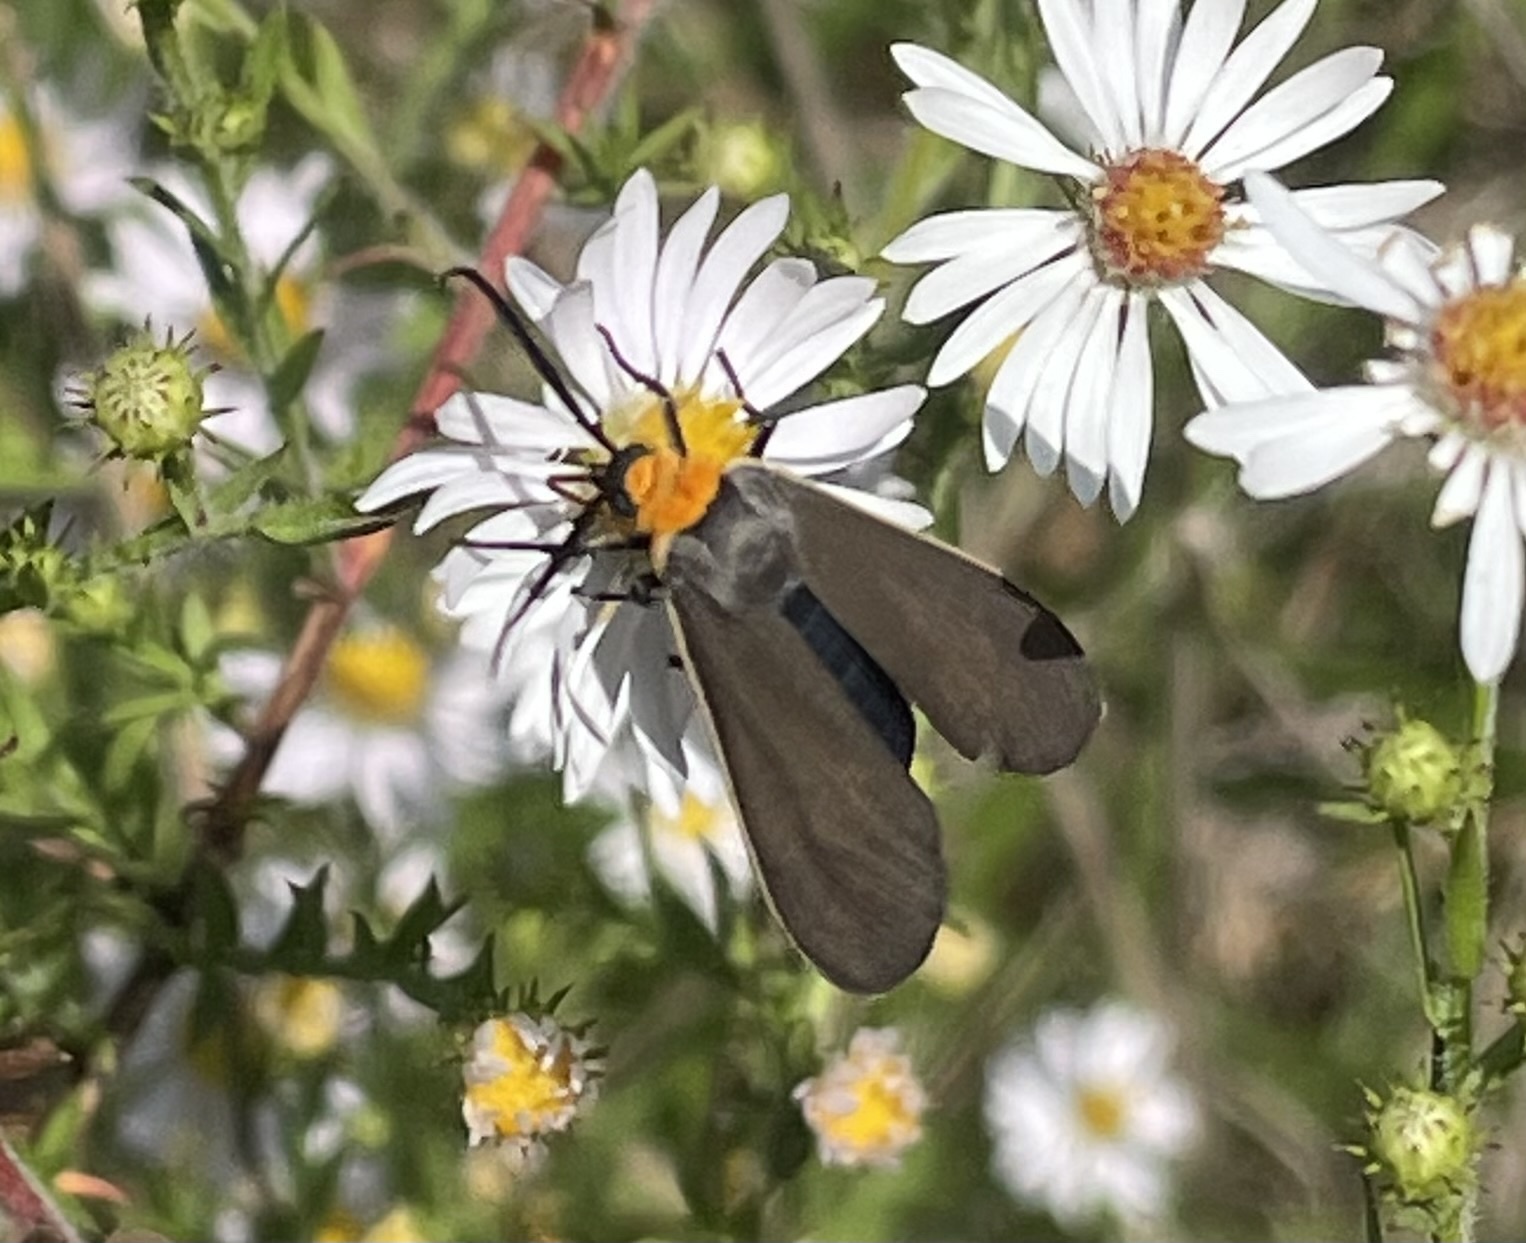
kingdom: Animalia
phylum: Arthropoda
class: Insecta
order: Lepidoptera
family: Erebidae
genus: Cisseps
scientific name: Cisseps fulvicollis
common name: Yellow-collared scape moth
